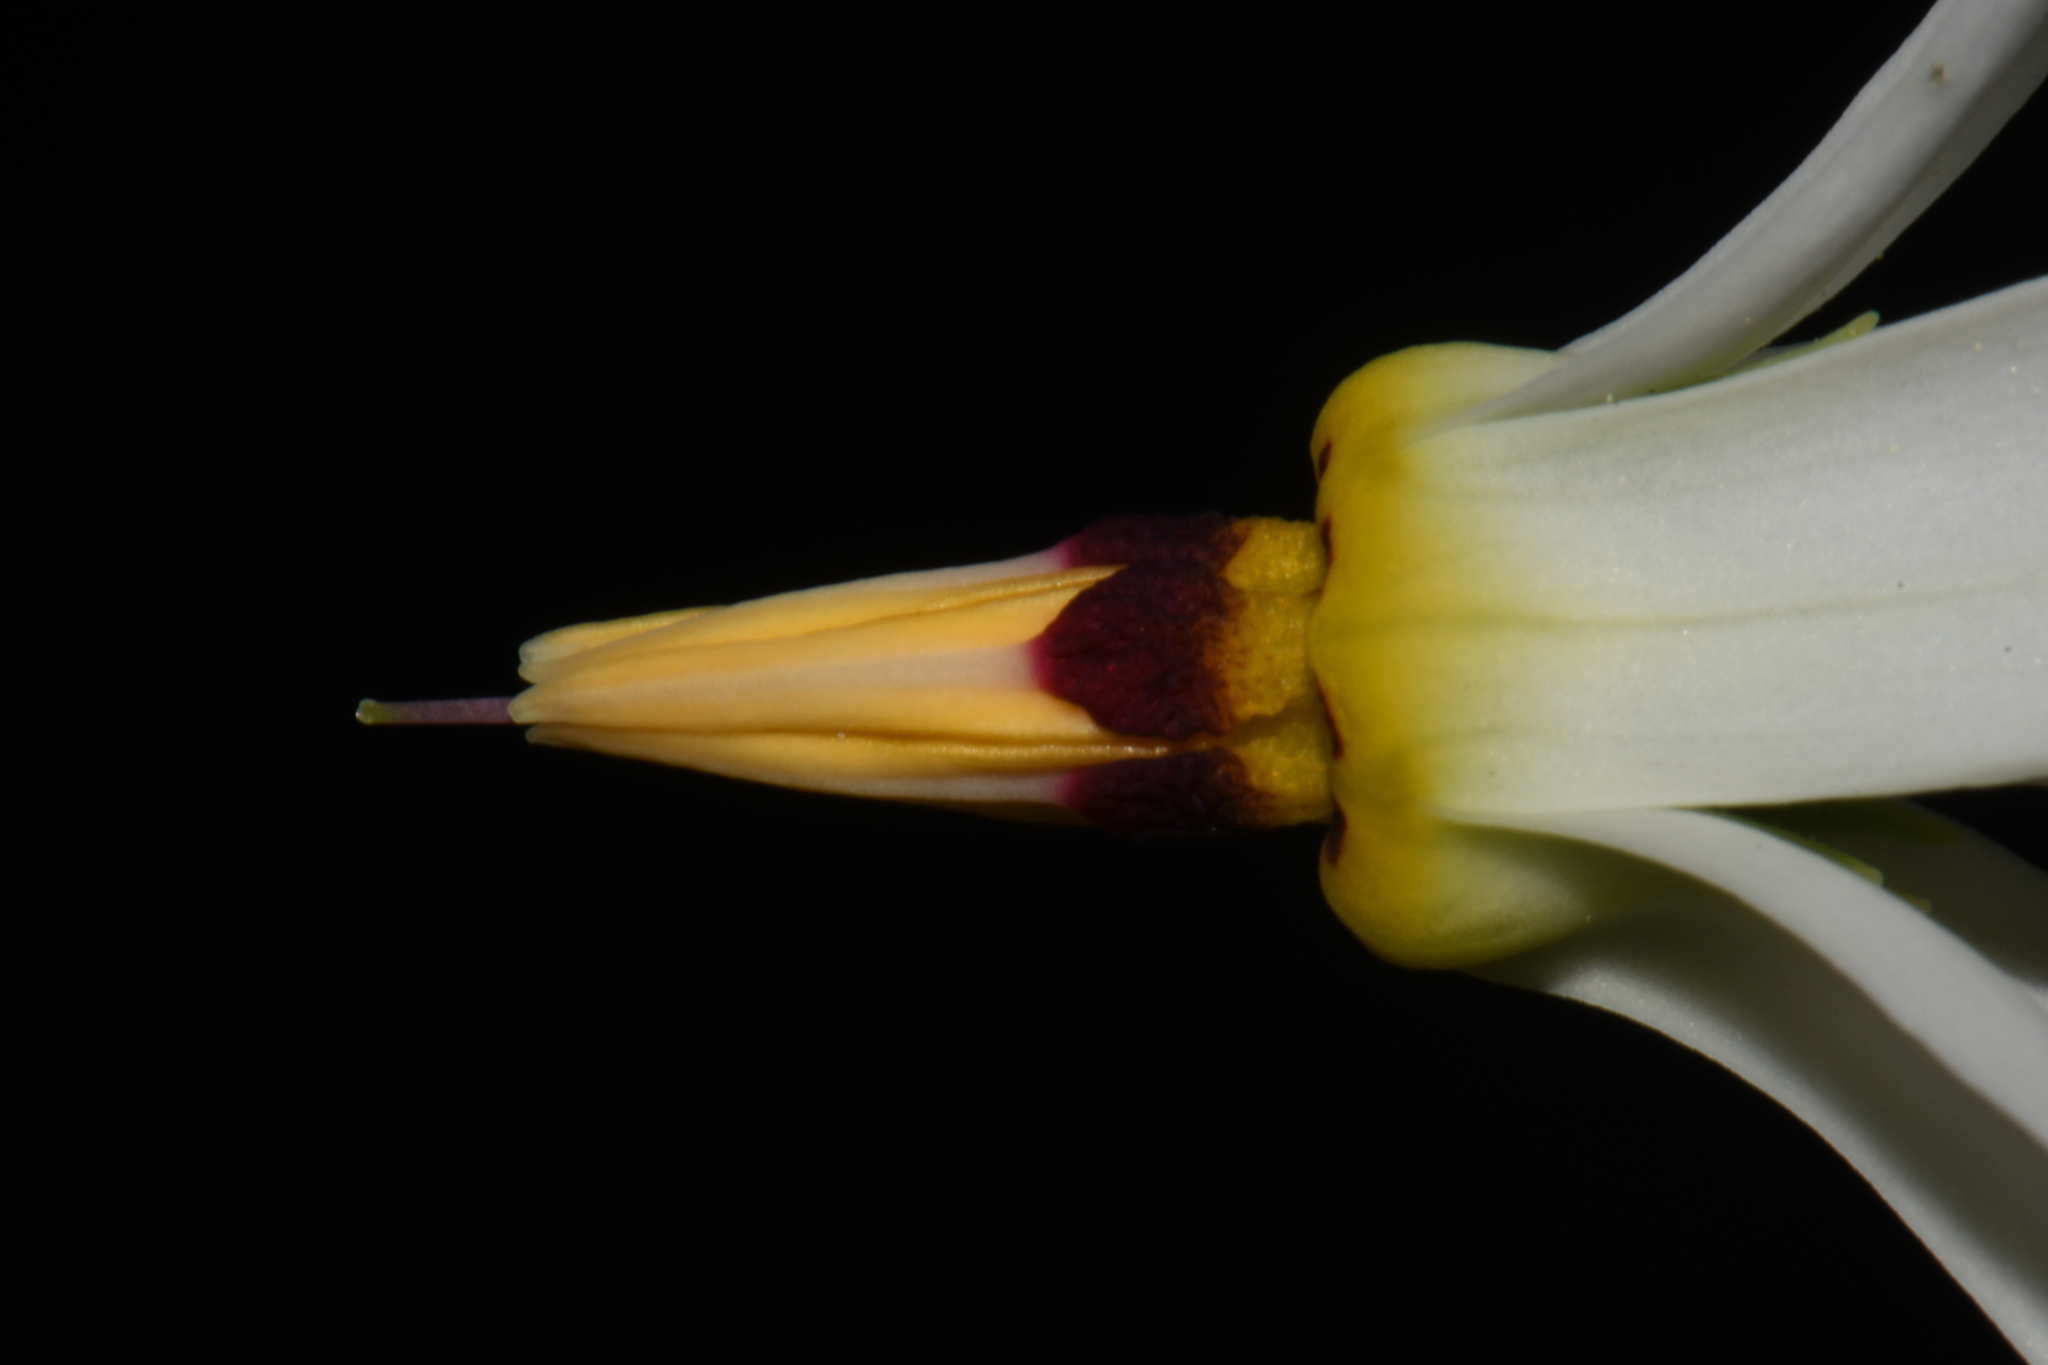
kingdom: Plantae
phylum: Tracheophyta
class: Magnoliopsida
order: Ericales
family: Primulaceae
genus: Dodecatheon
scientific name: Dodecatheon meadia
